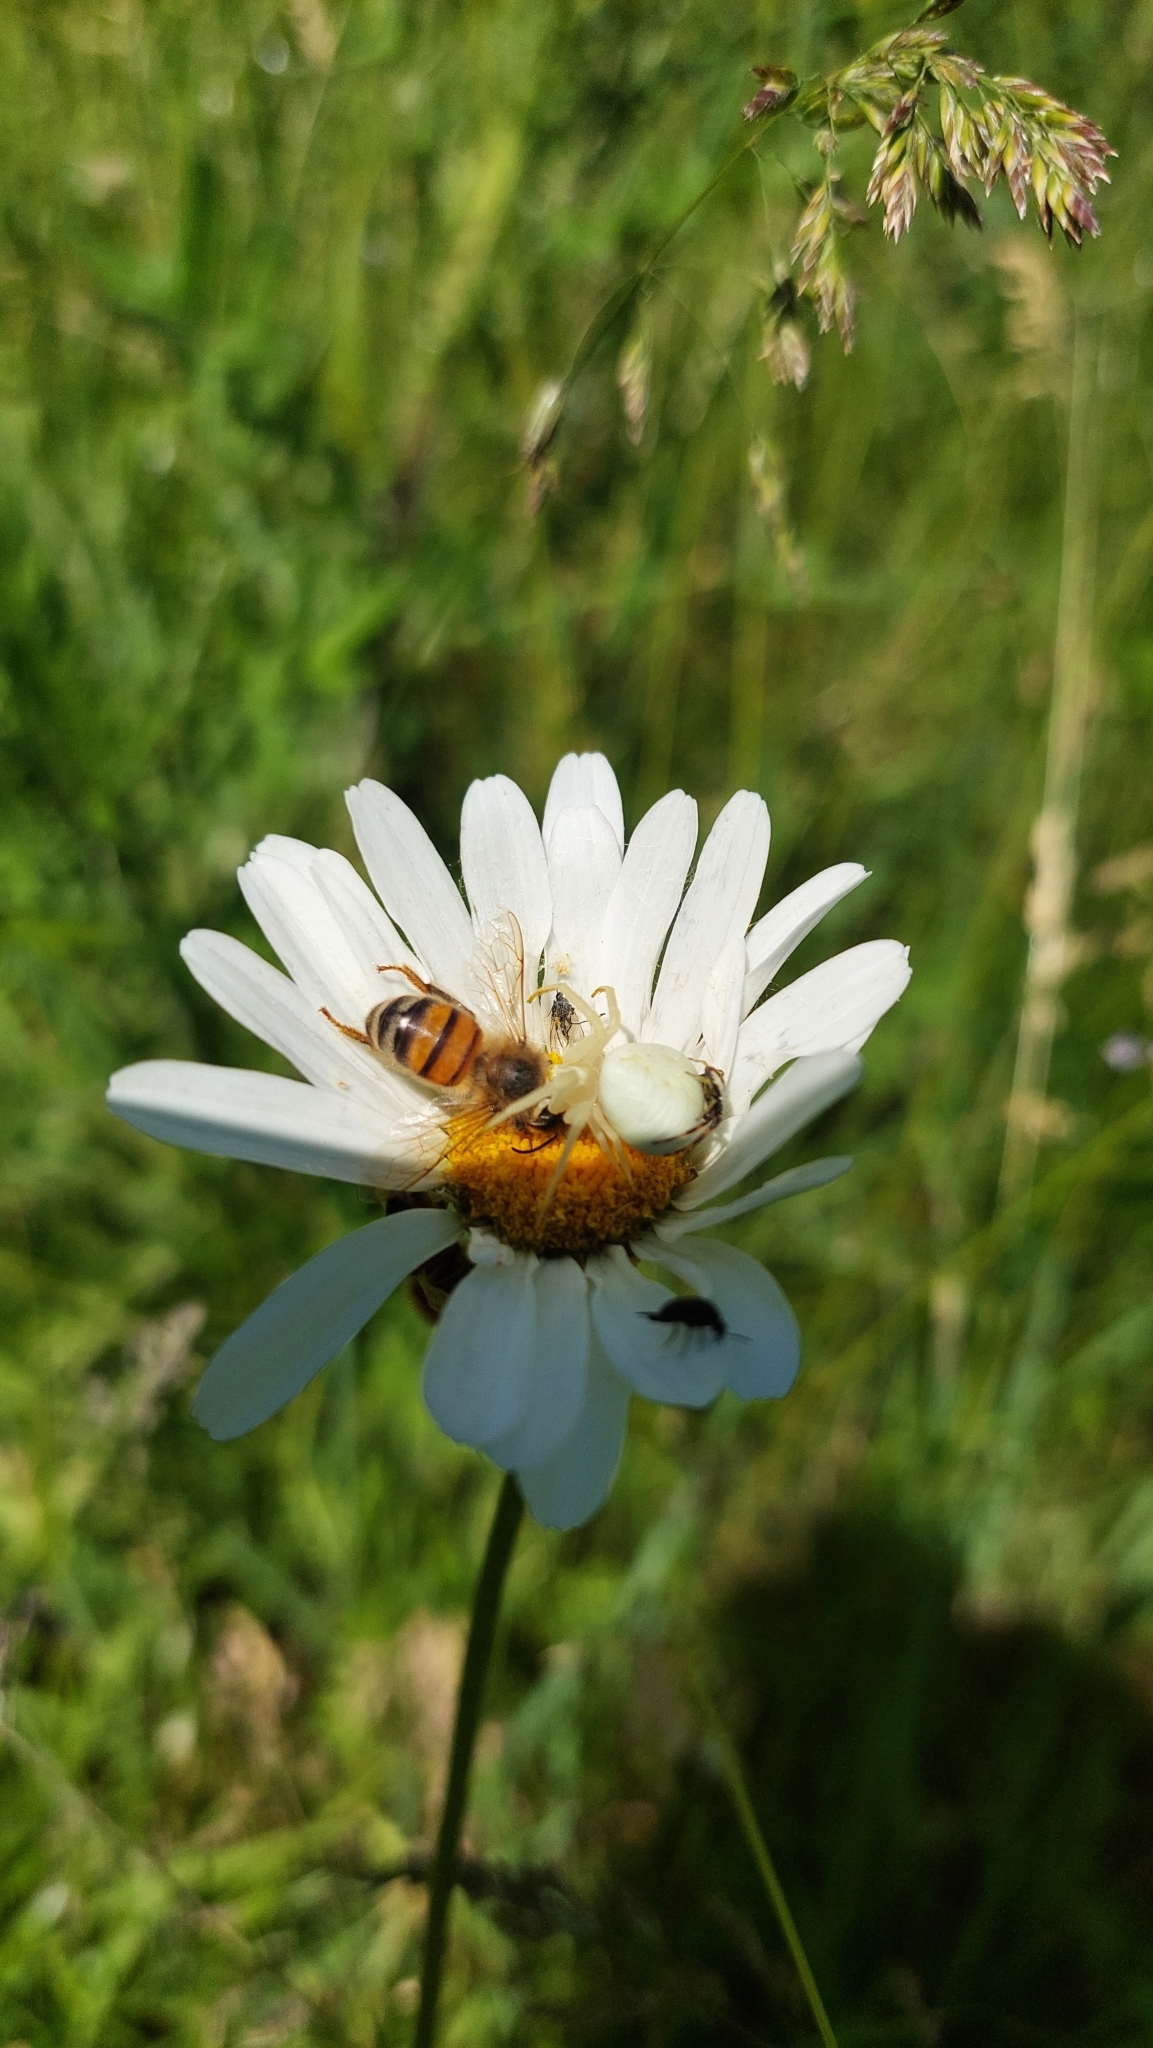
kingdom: Animalia
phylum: Arthropoda
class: Arachnida
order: Araneae
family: Thomisidae
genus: Misumena
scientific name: Misumena vatia
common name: Goldenrod crab spider
